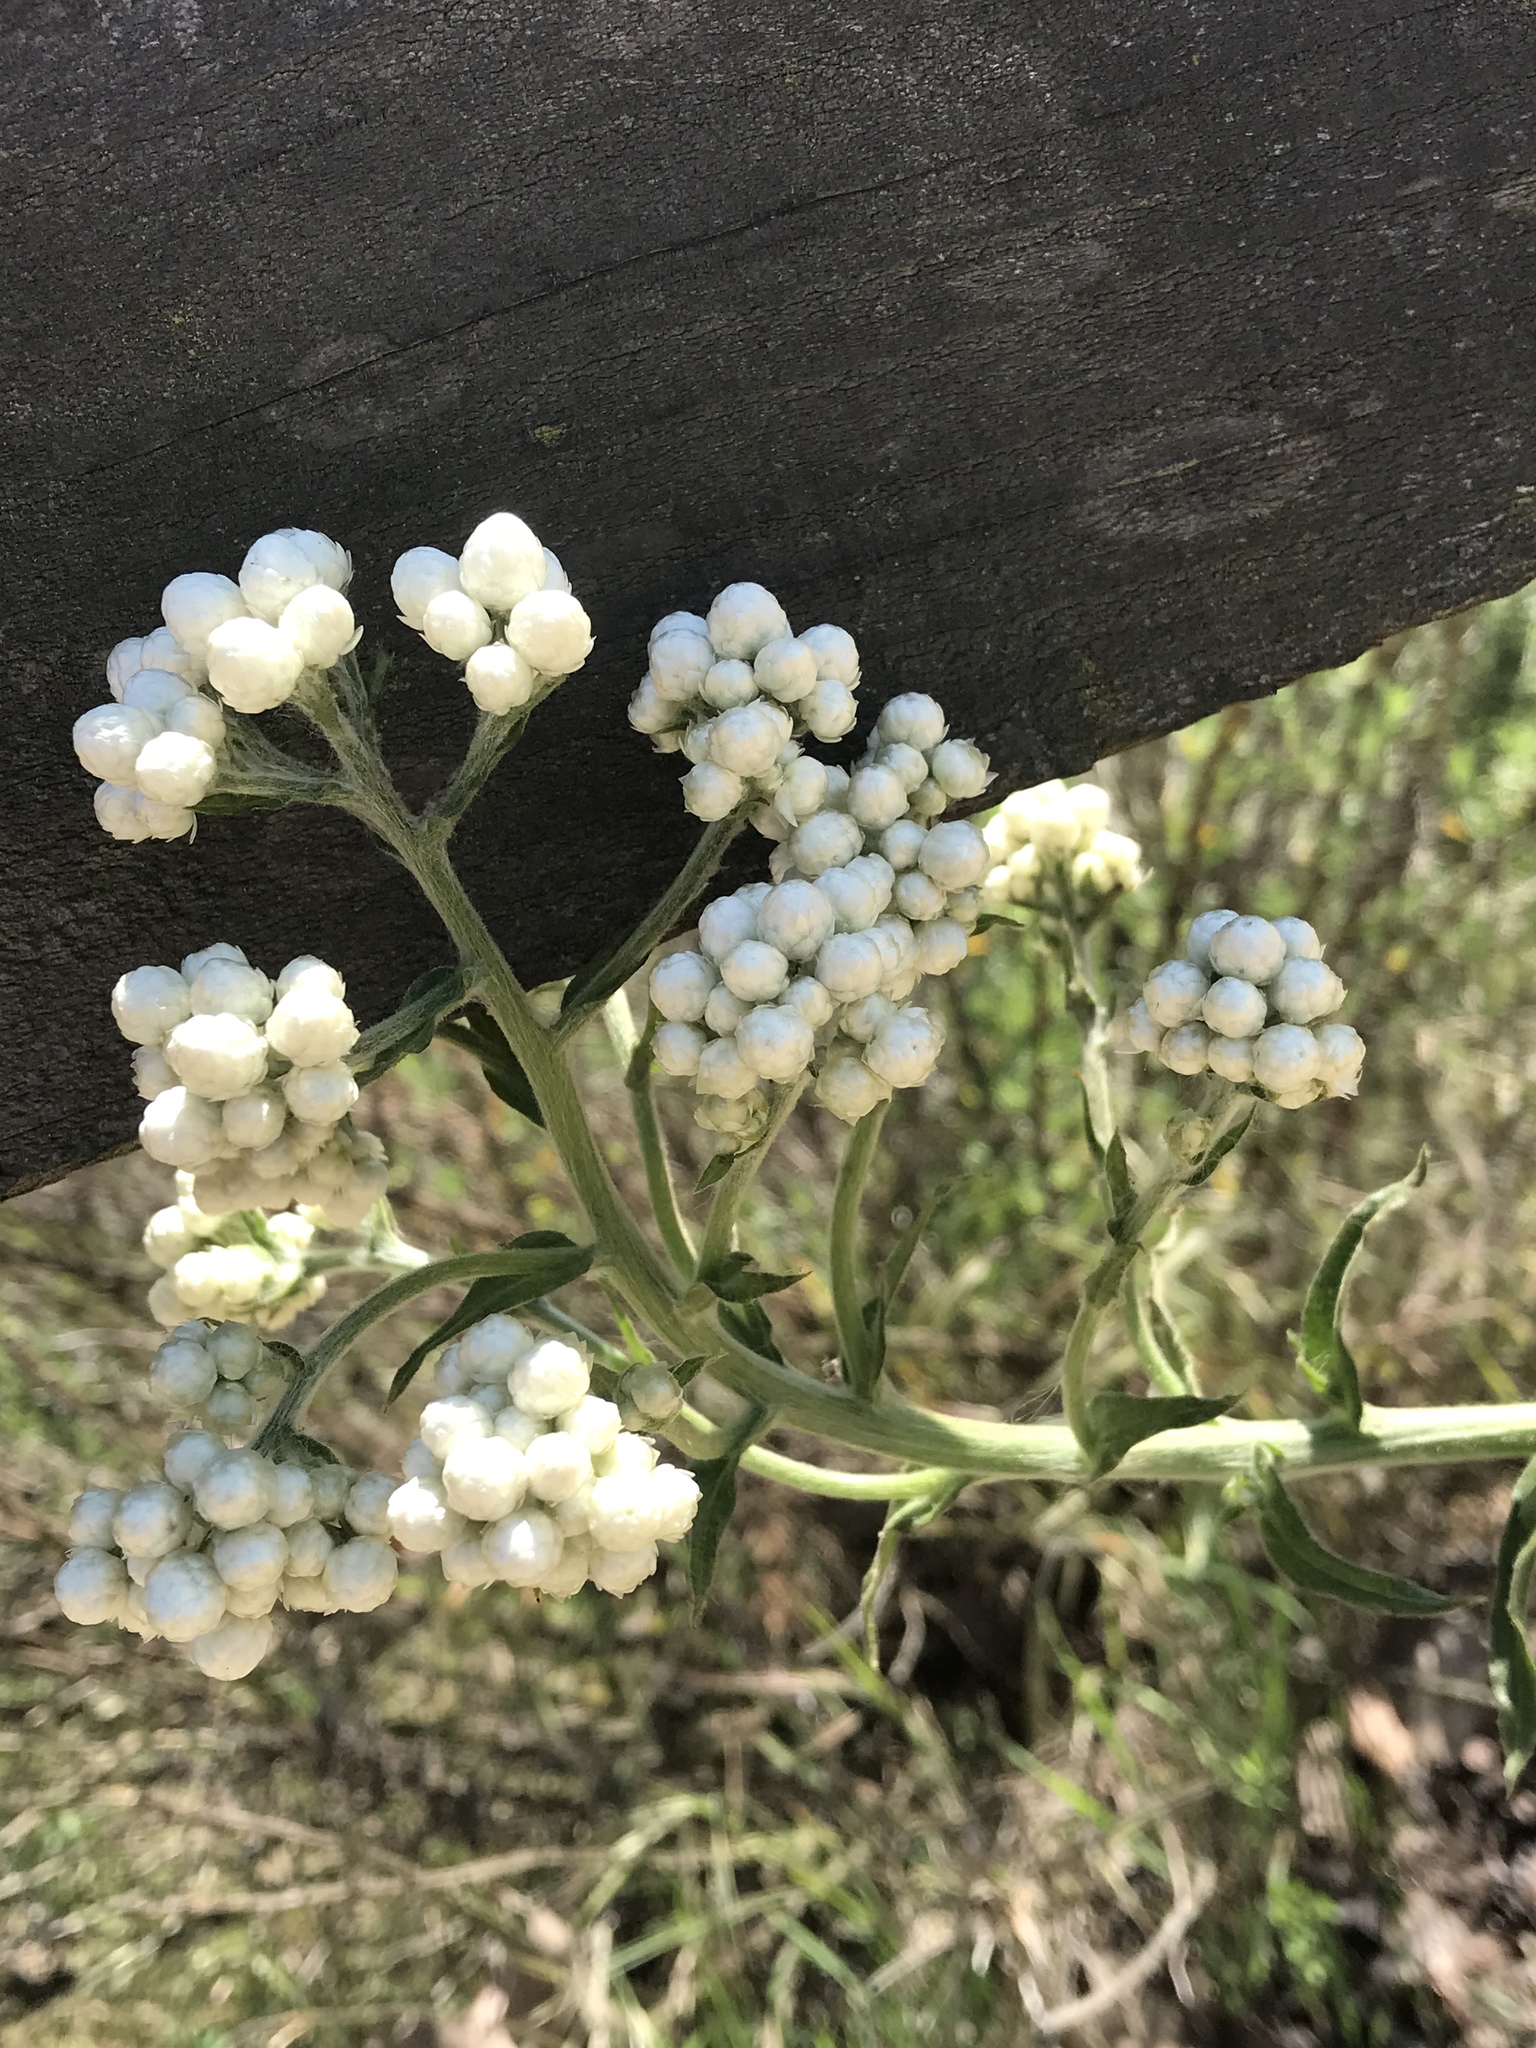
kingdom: Plantae
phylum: Tracheophyta
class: Magnoliopsida
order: Asterales
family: Asteraceae
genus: Pseudognaphalium
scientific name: Pseudognaphalium californicum
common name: California rabbit-tobacco
